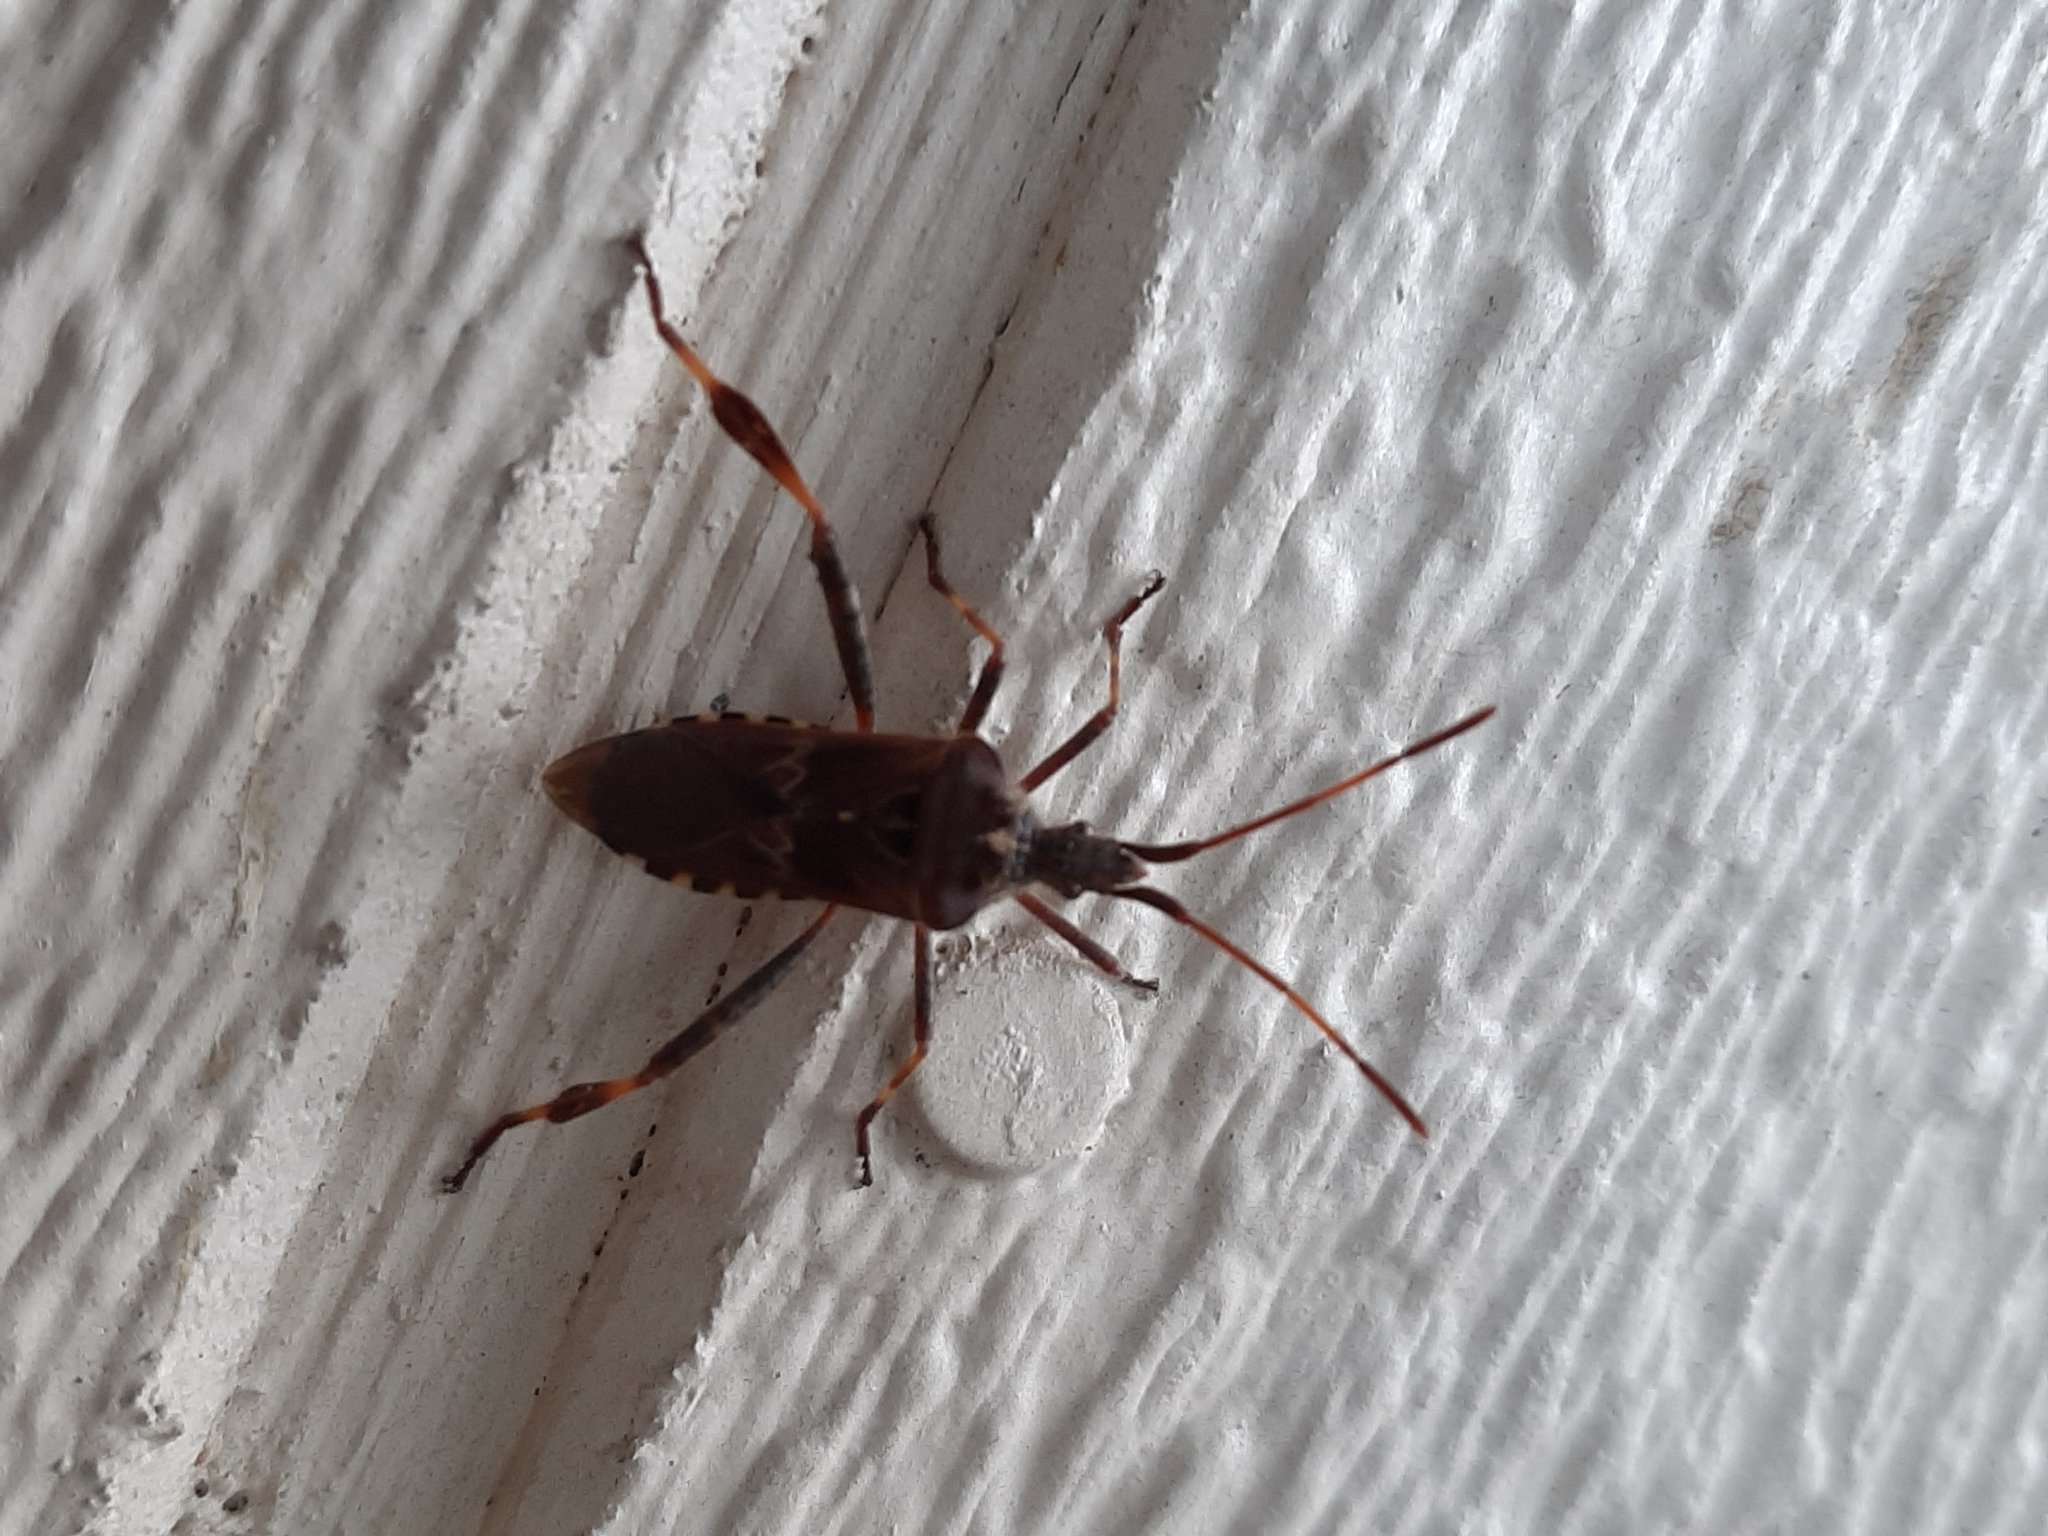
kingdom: Animalia
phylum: Arthropoda
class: Insecta
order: Hemiptera
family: Coreidae
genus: Leptoglossus
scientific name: Leptoglossus occidentalis
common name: Western conifer-seed bug
